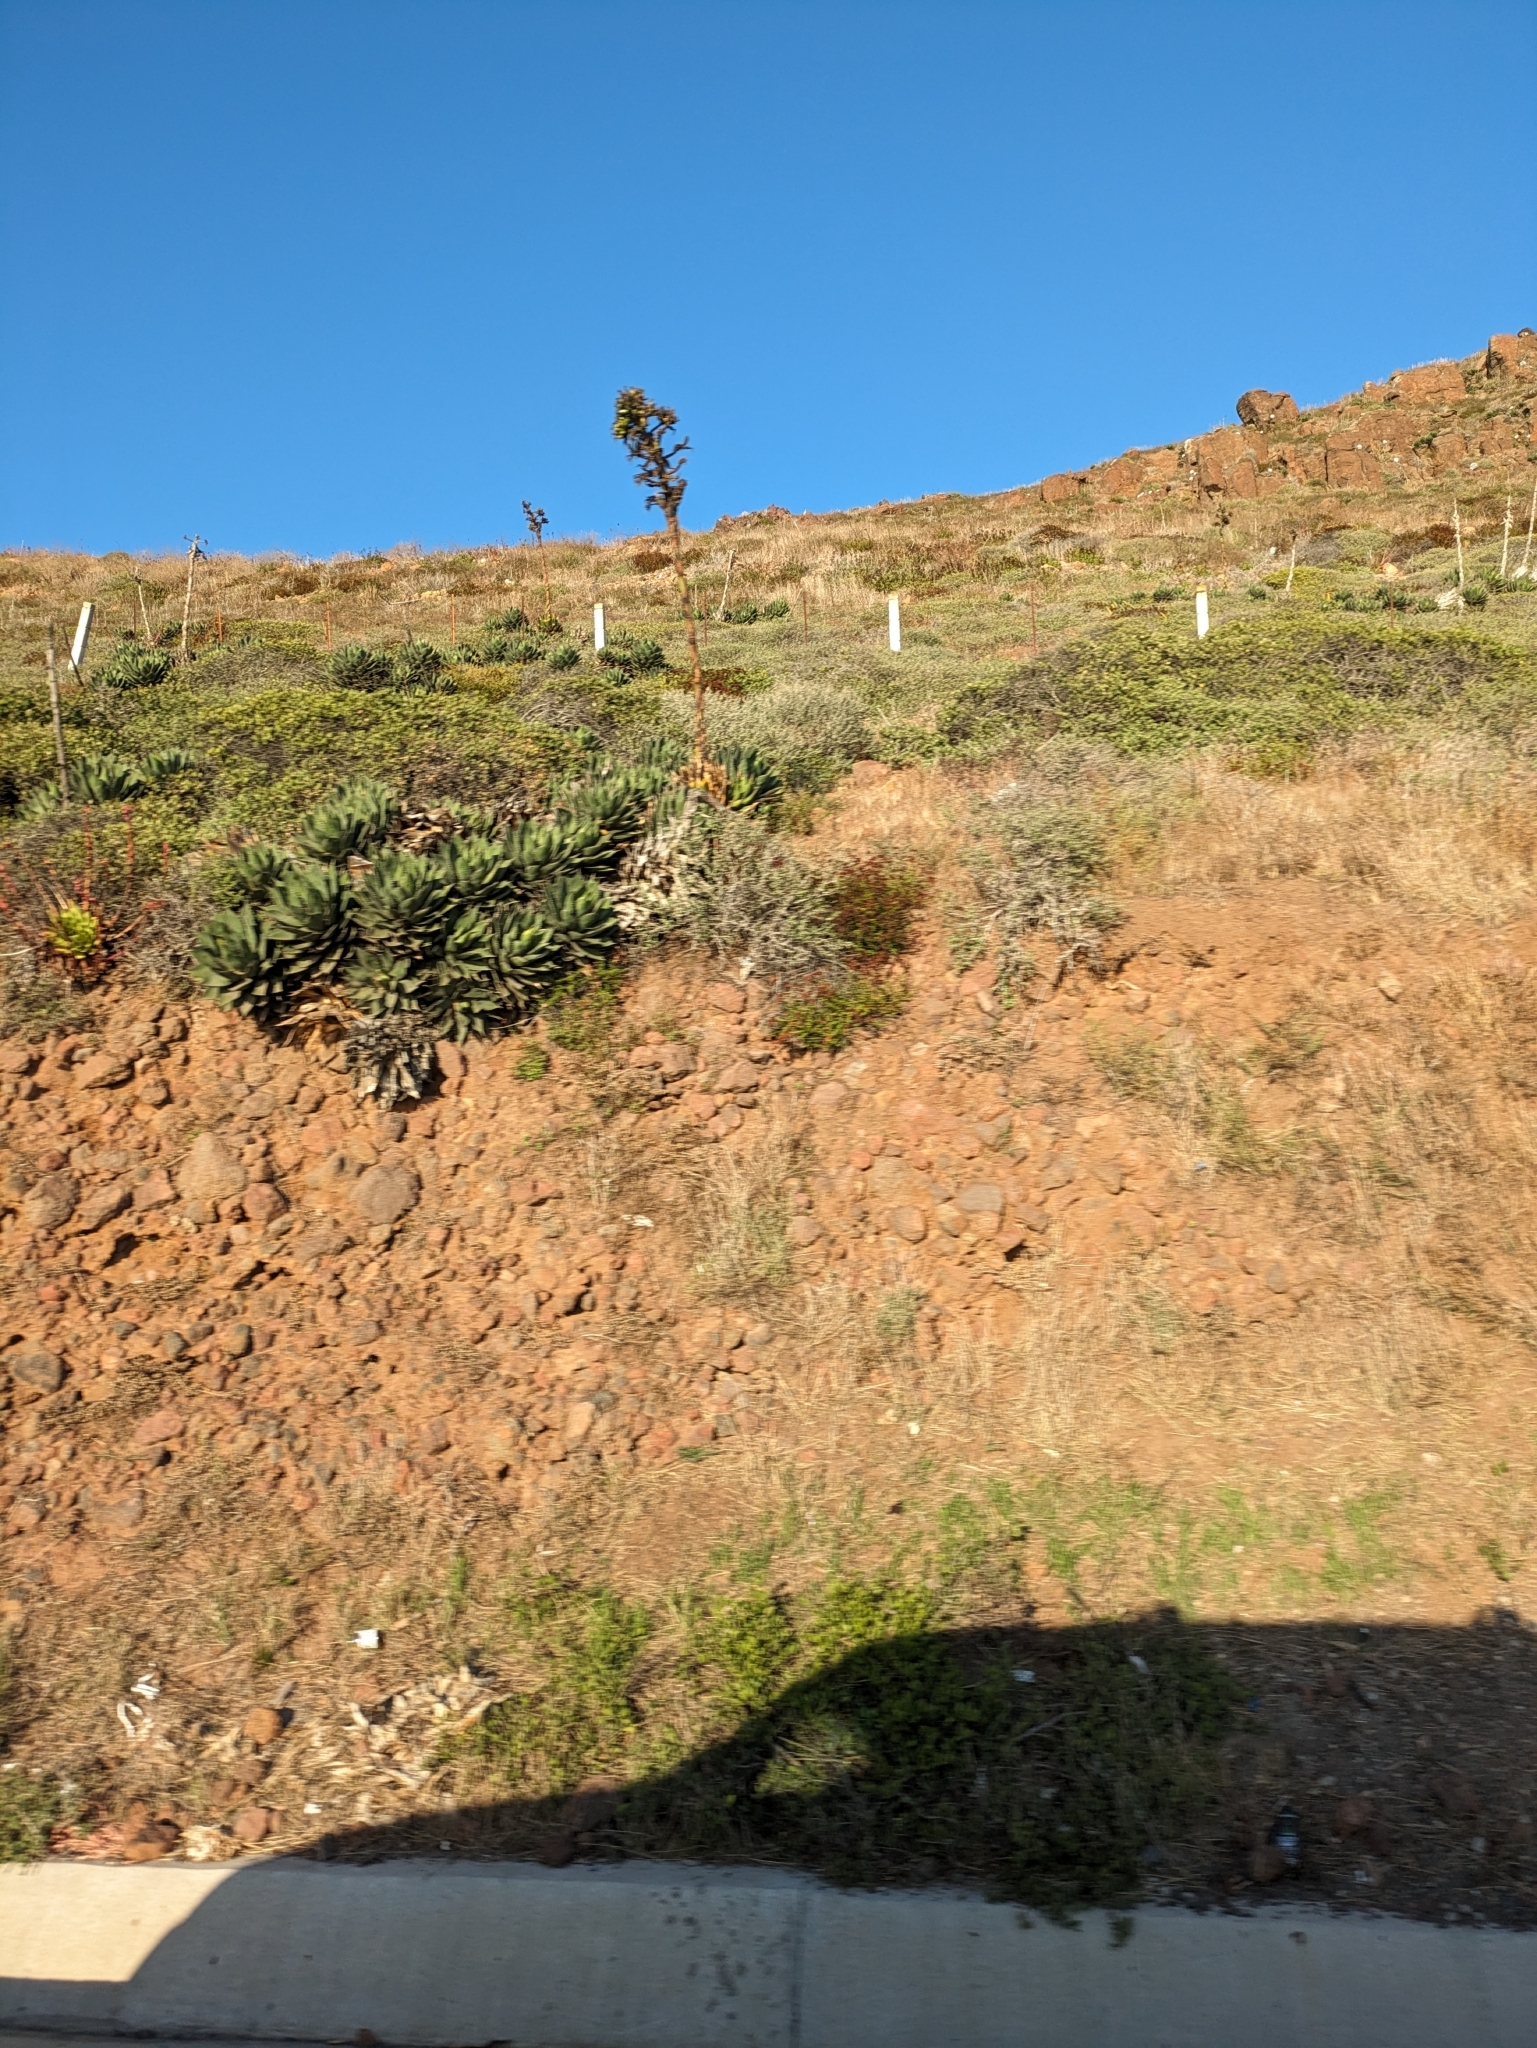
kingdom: Plantae
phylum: Tracheophyta
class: Liliopsida
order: Asparagales
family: Asparagaceae
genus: Agave
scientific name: Agave shawii
